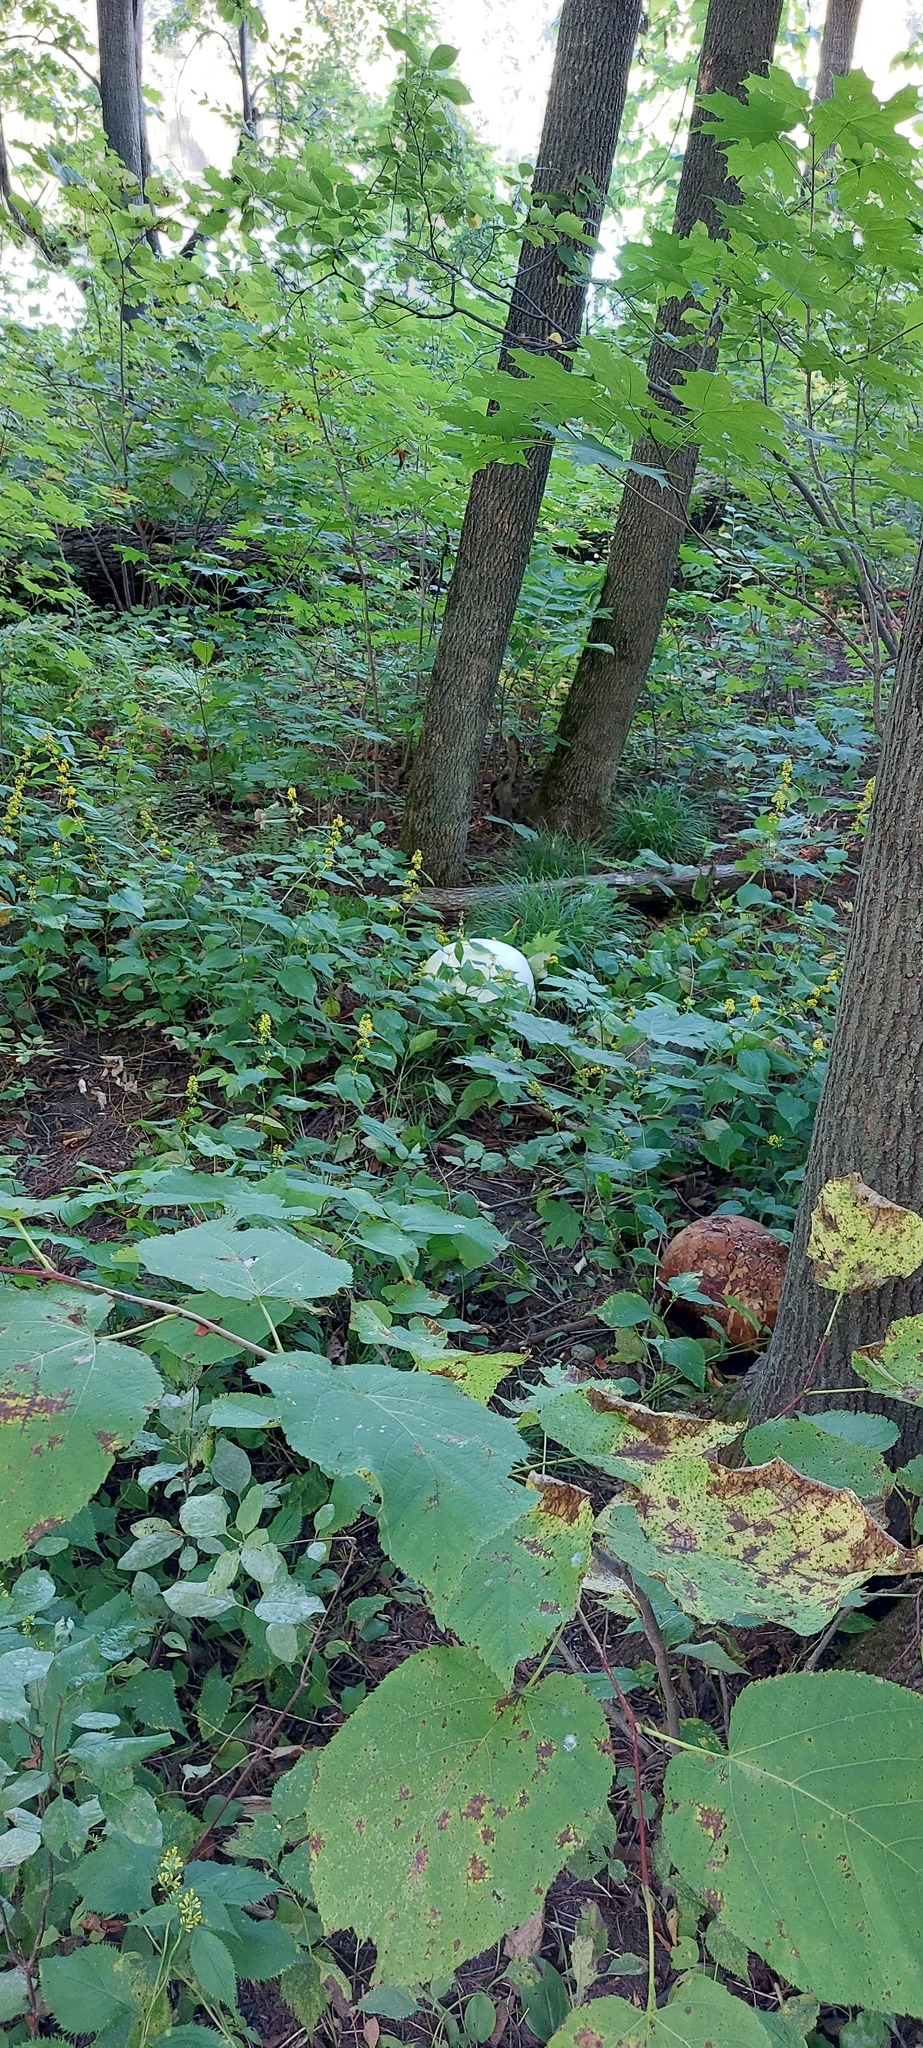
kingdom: Fungi
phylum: Basidiomycota
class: Agaricomycetes
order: Agaricales
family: Lycoperdaceae
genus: Calvatia
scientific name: Calvatia gigantea
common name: Giant puffball
